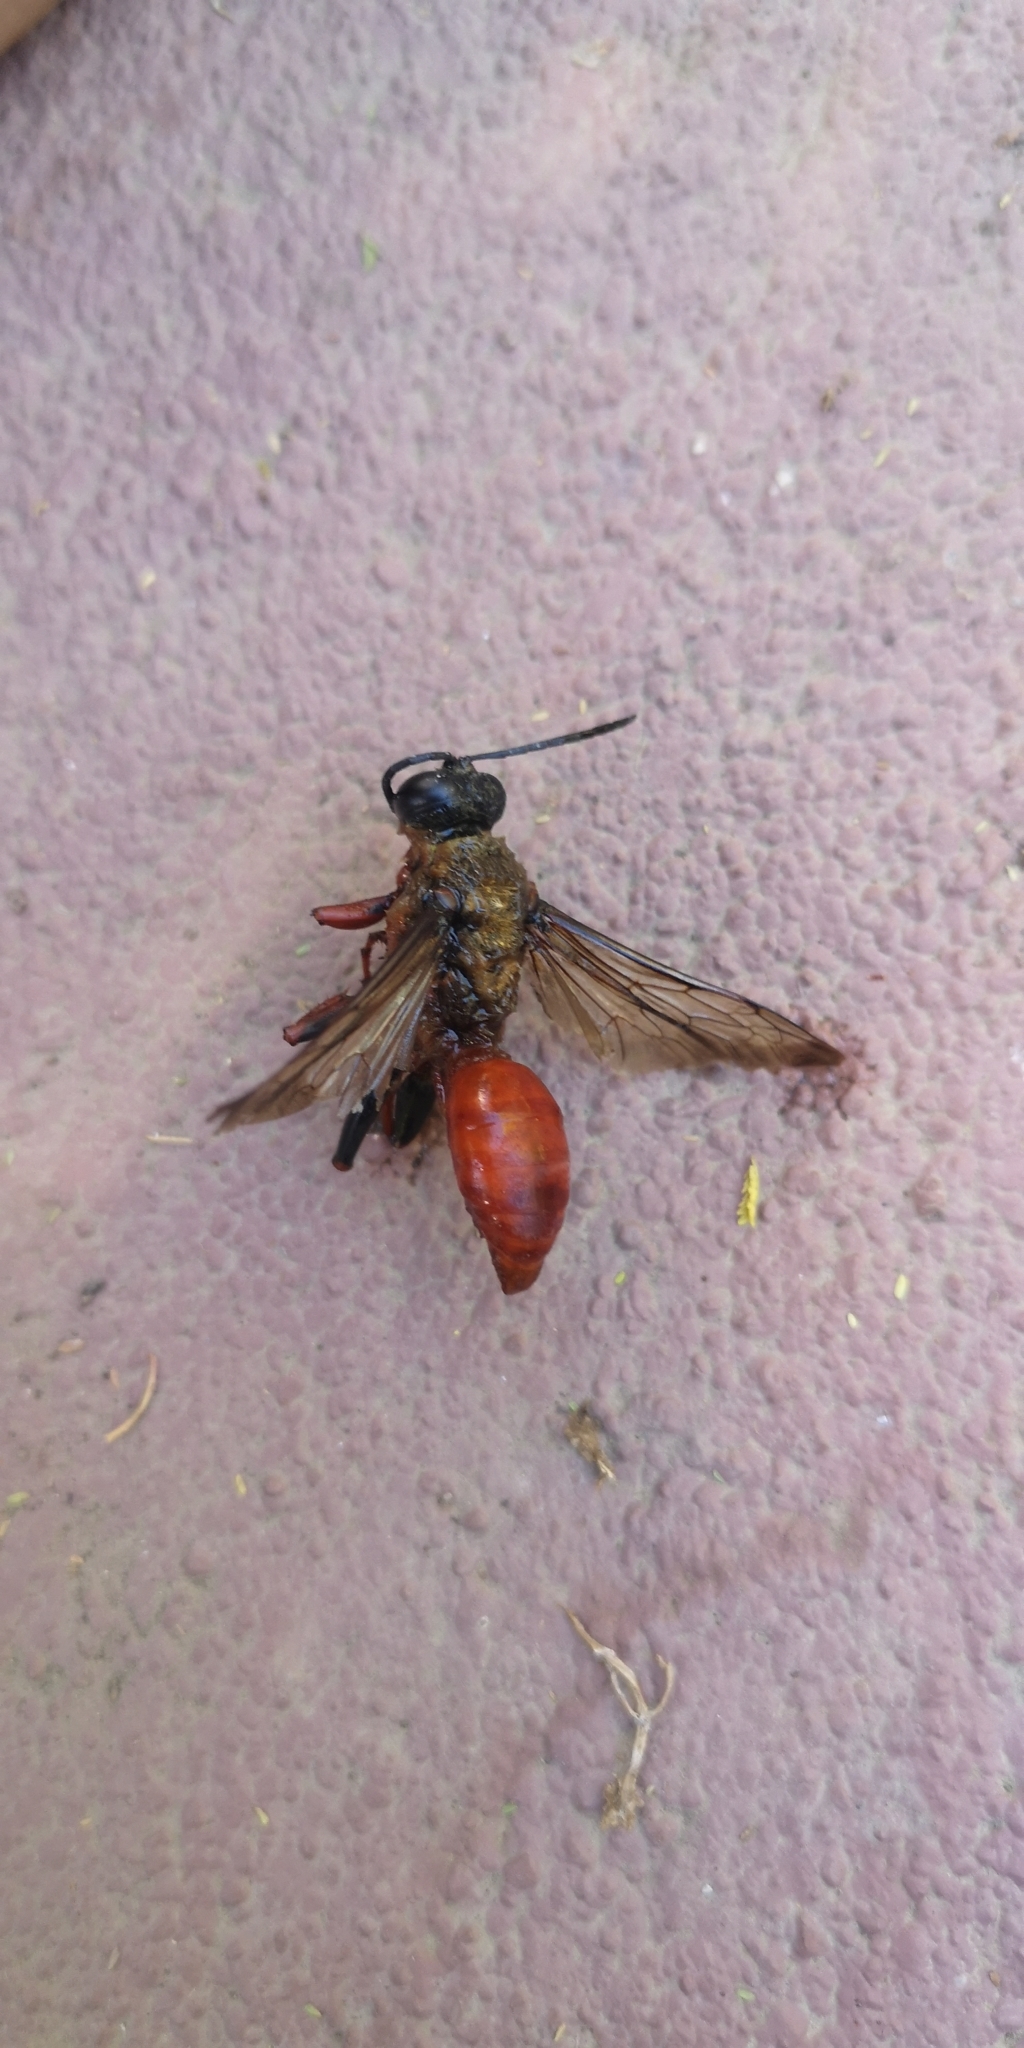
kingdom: Animalia
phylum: Arthropoda
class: Insecta
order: Hymenoptera
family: Sphecidae
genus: Sphex
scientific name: Sphex latreillei
